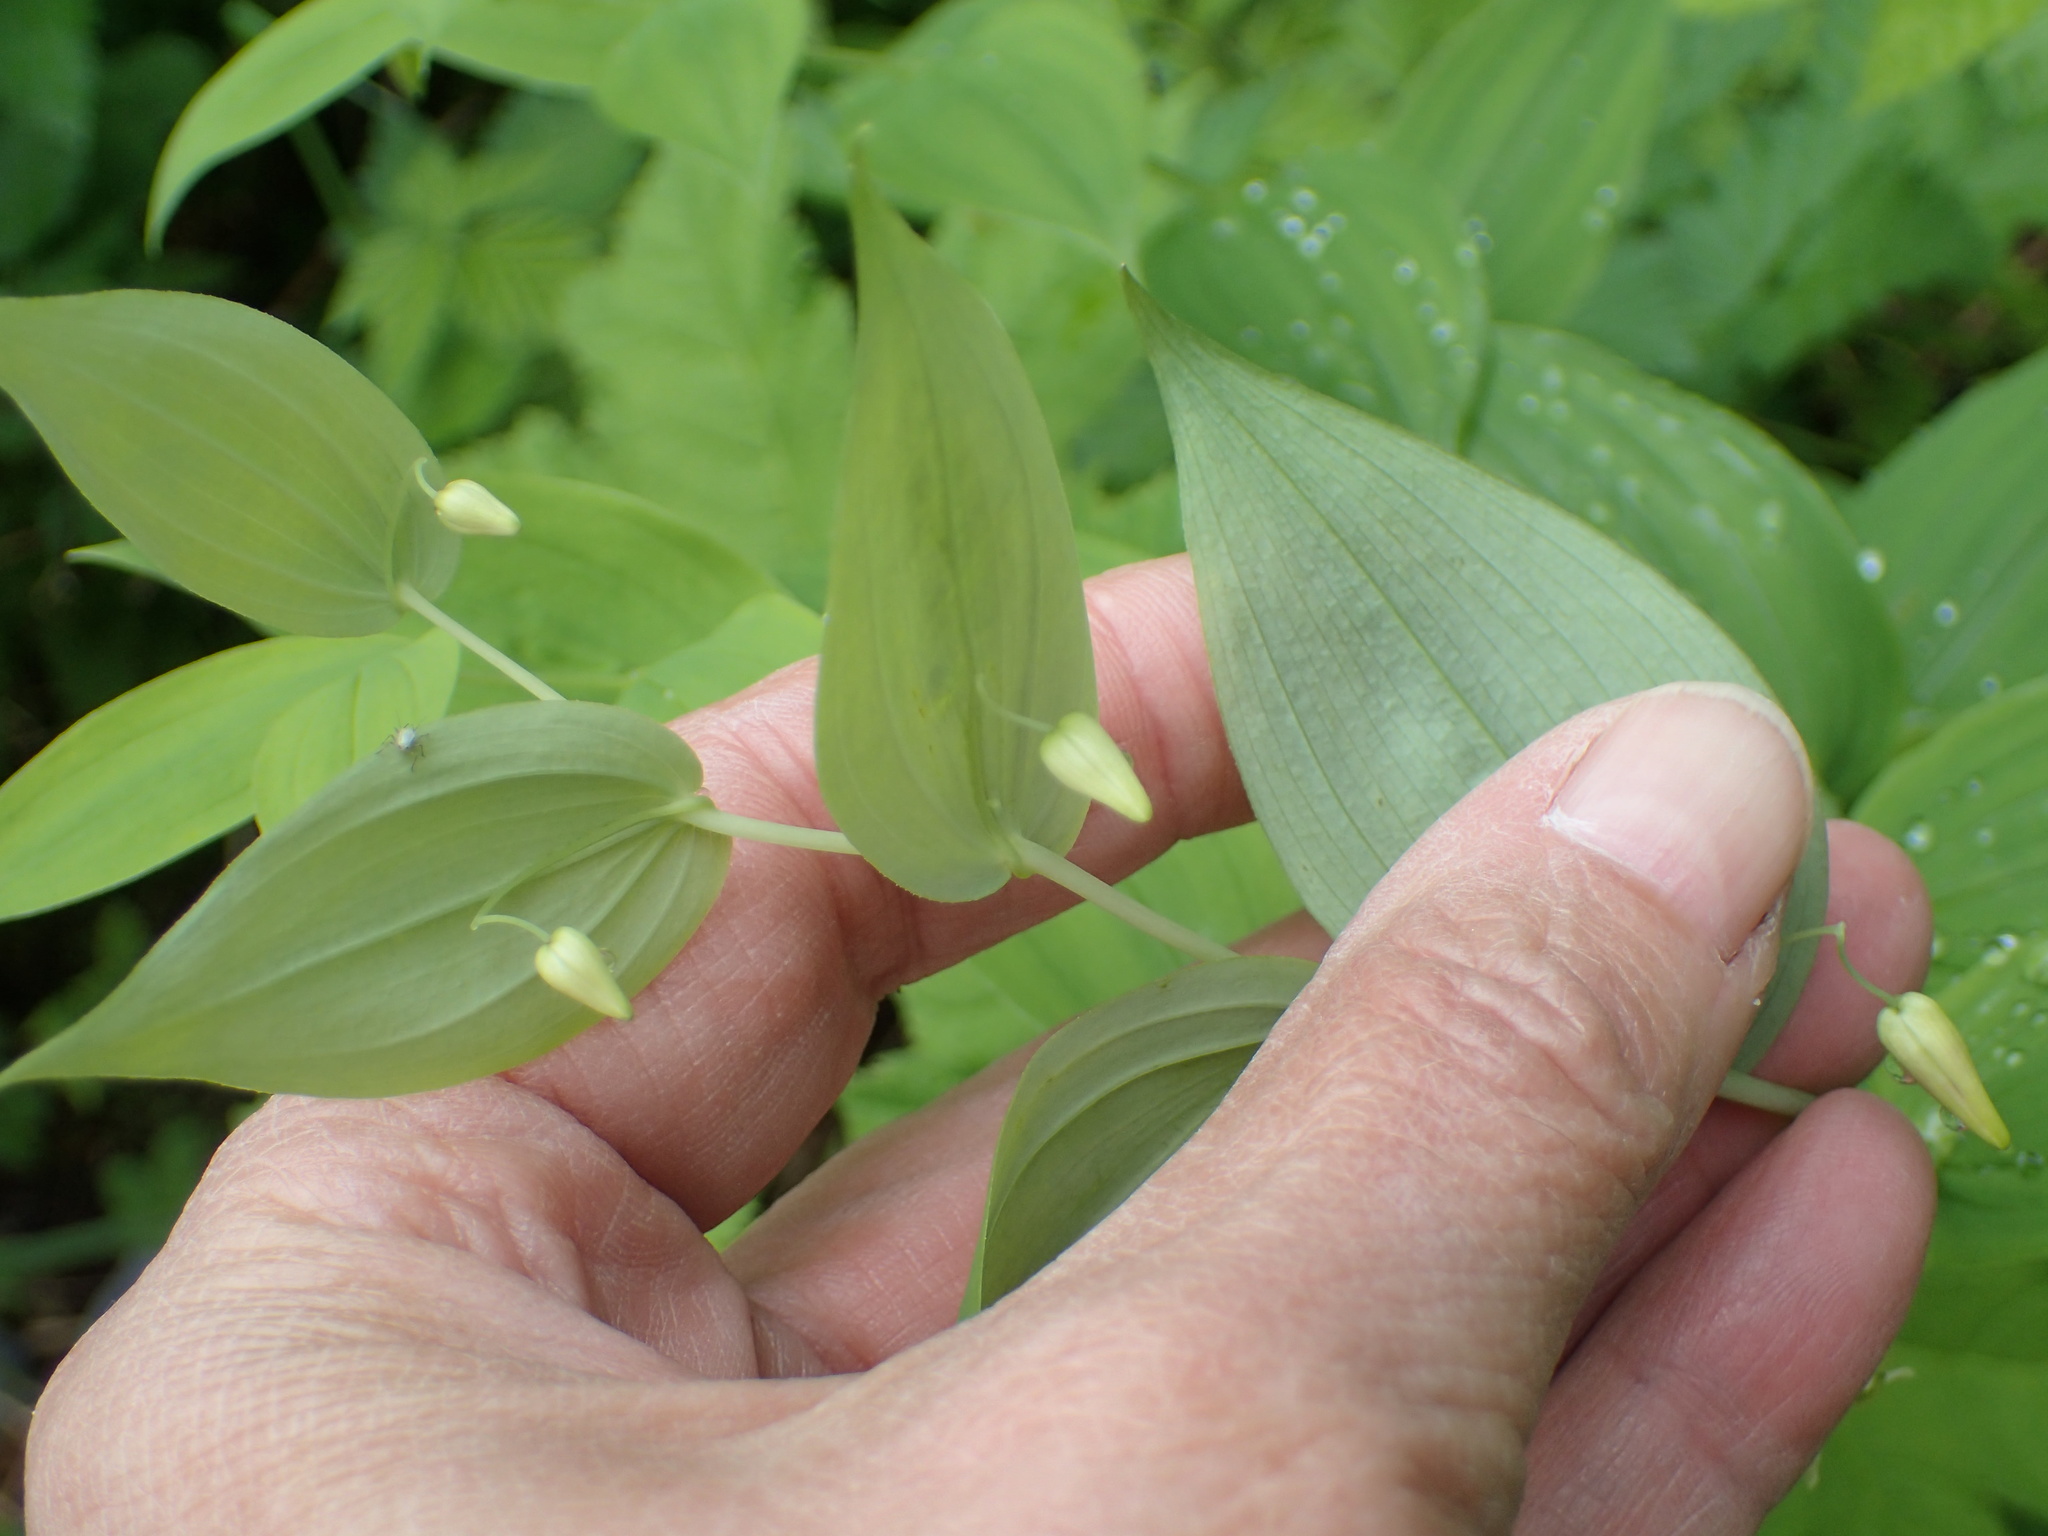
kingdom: Plantae
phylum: Tracheophyta
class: Liliopsida
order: Liliales
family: Liliaceae
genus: Streptopus
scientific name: Streptopus amplexifolius
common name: Clasp twisted stalk
